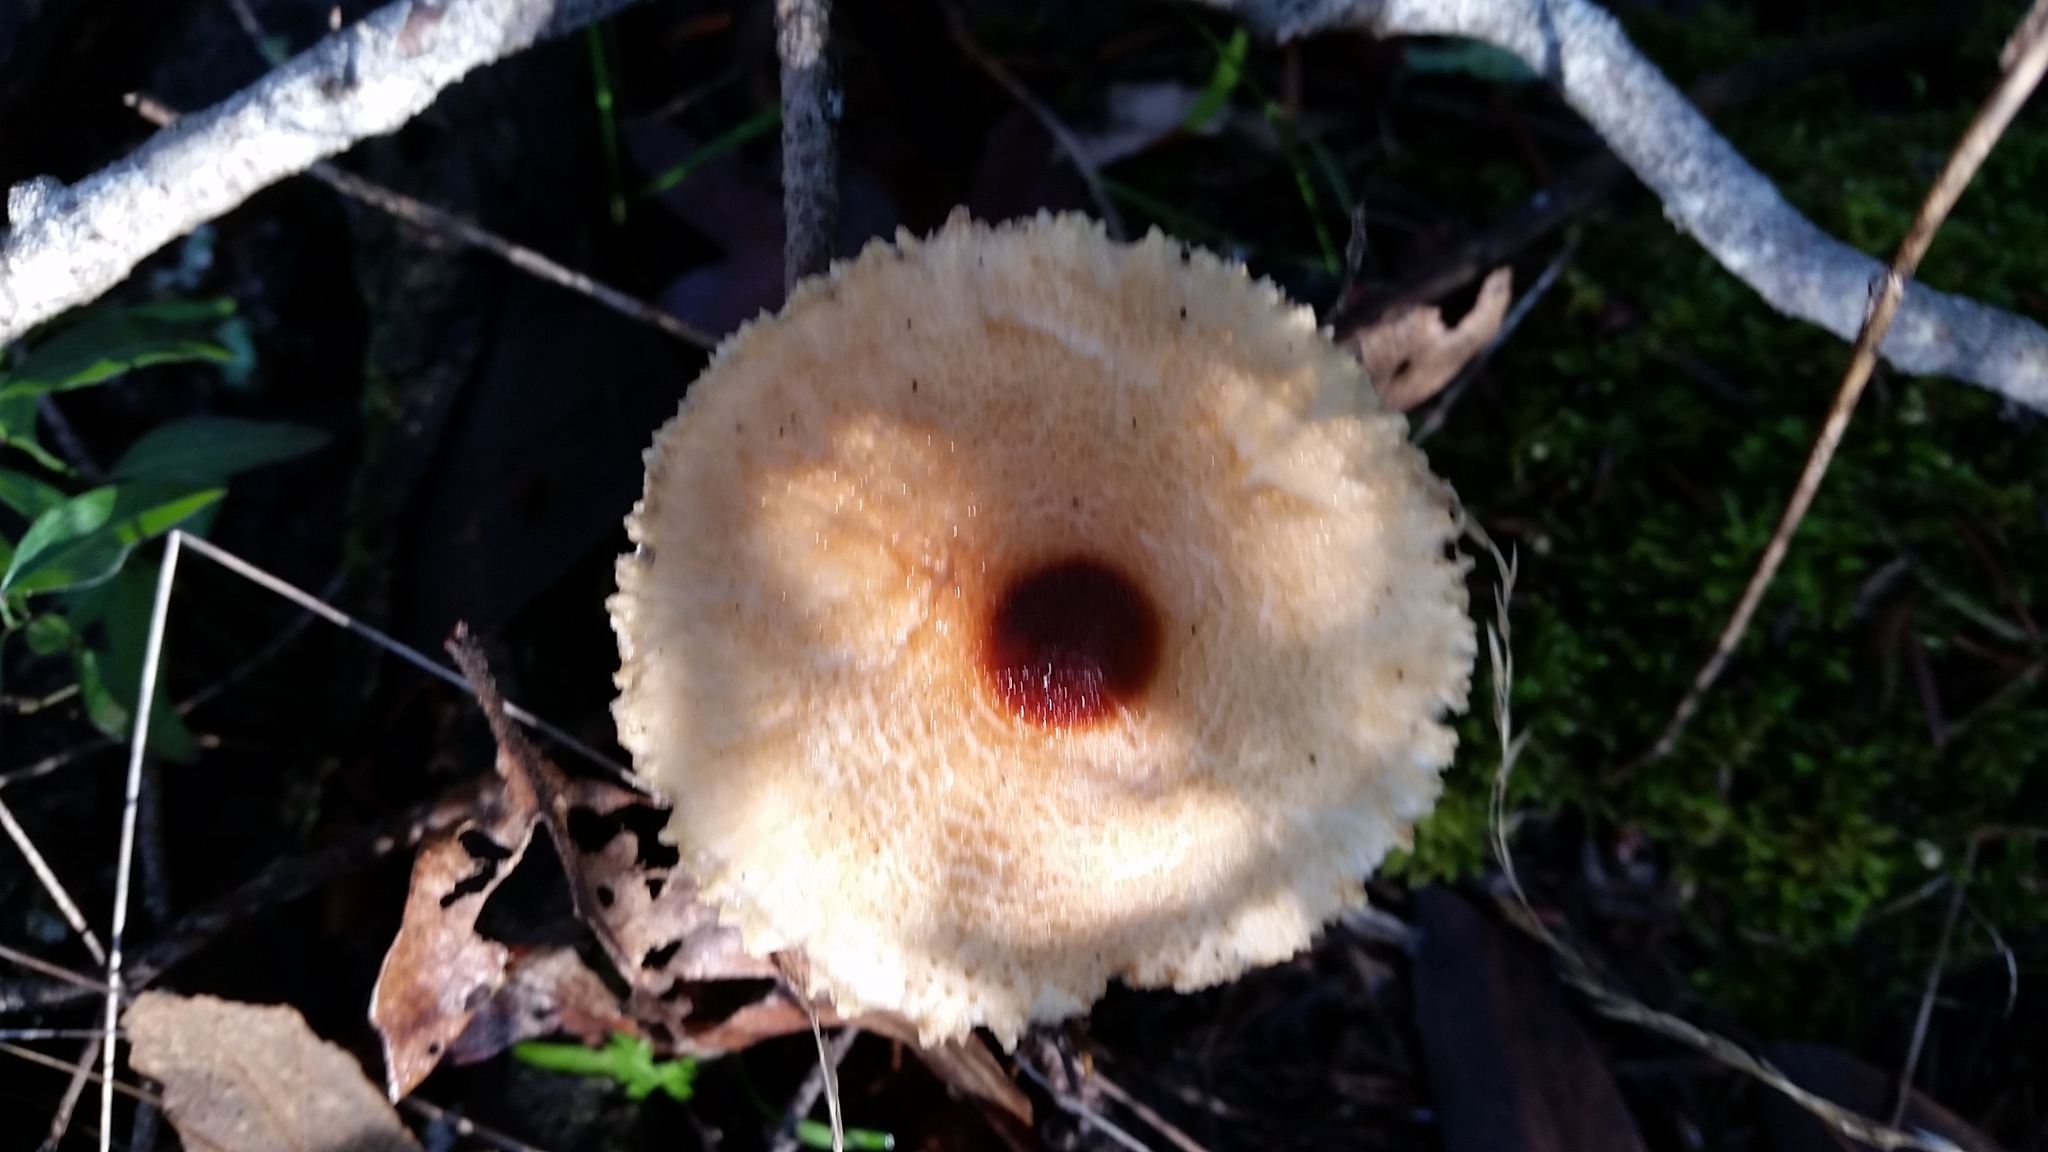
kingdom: Fungi
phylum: Basidiomycota
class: Agaricomycetes
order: Agaricales
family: Agaricaceae
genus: Lepiota
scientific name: Lepiota magnispora
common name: Yellowfoot dapperling
